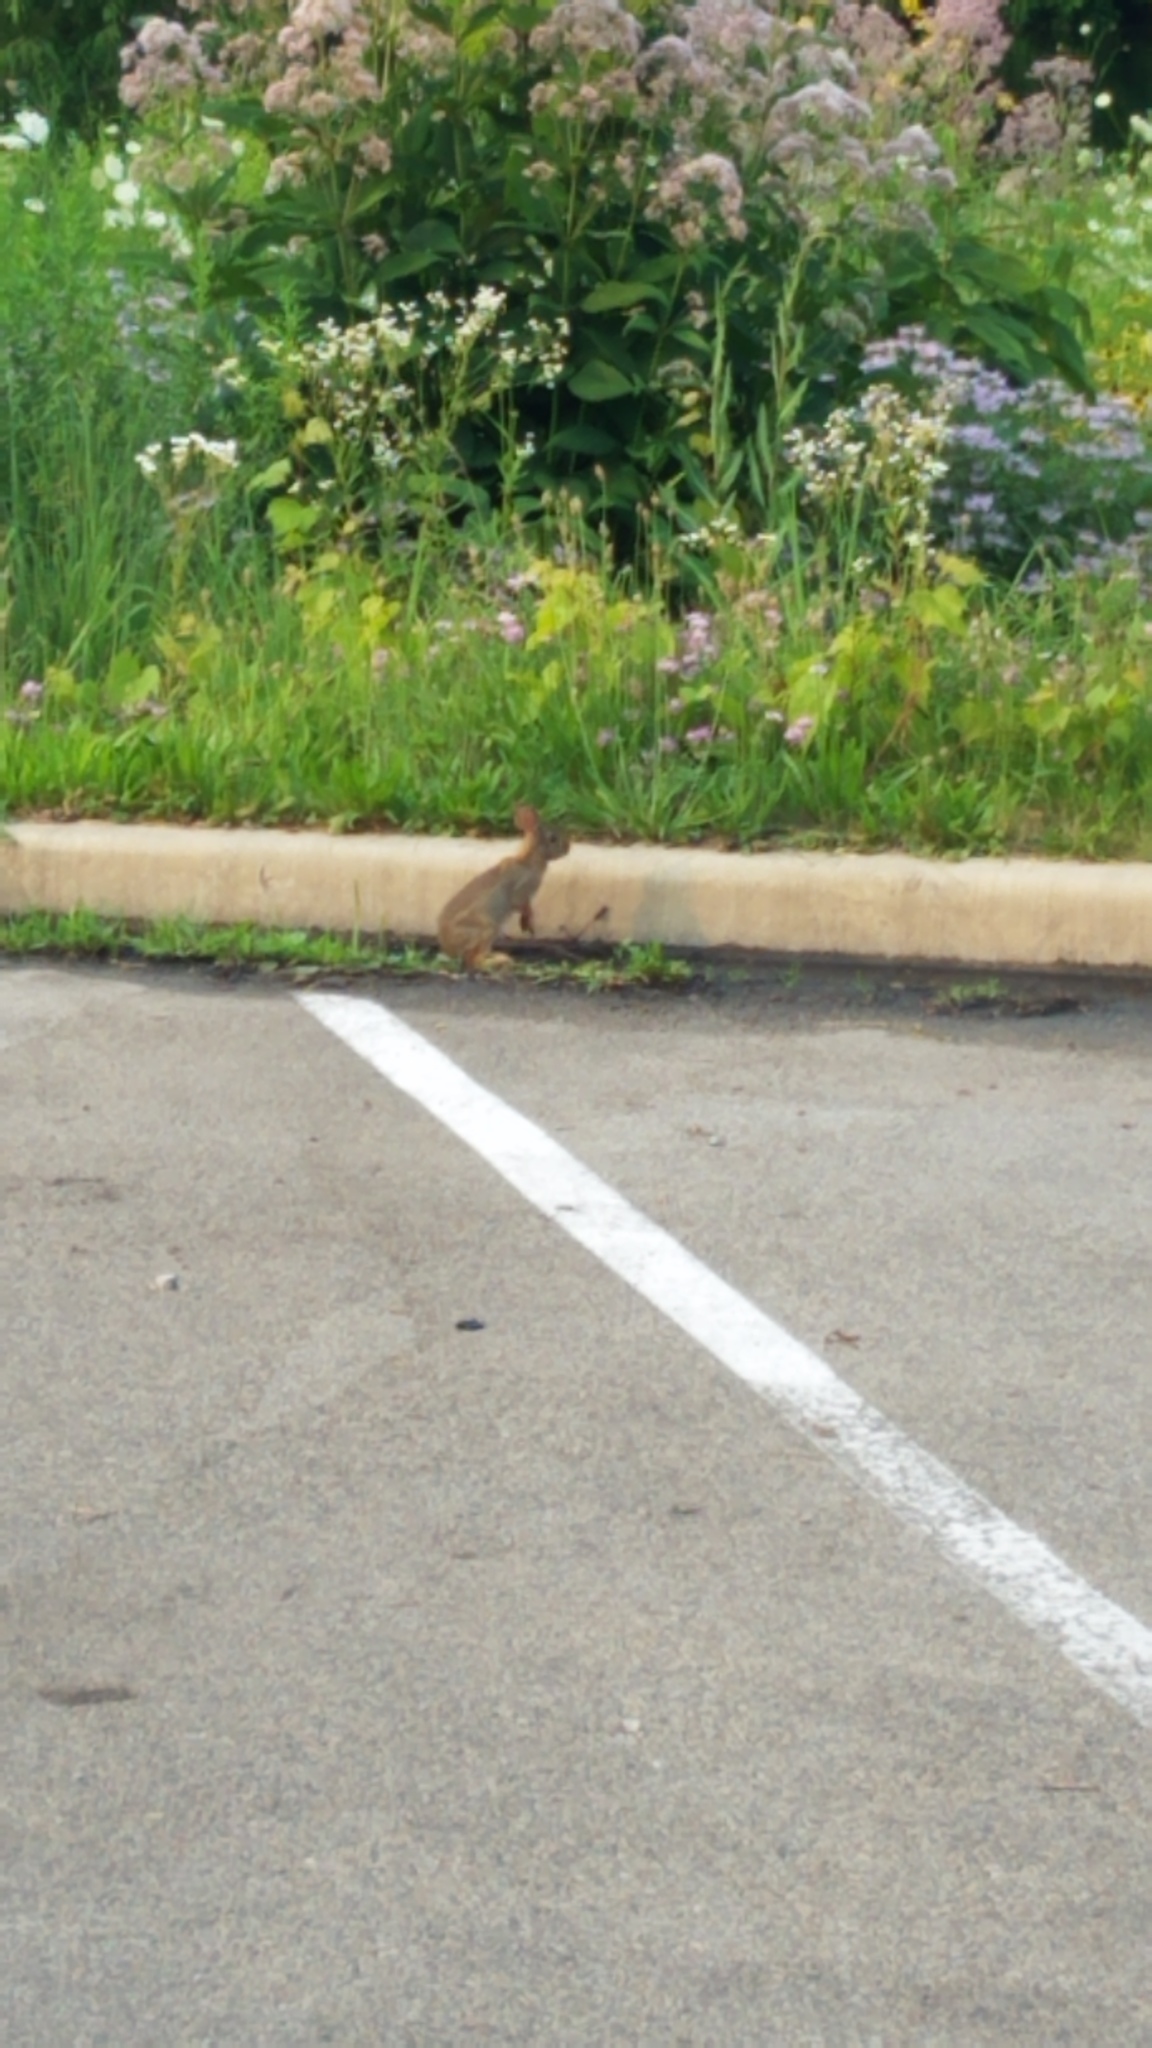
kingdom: Animalia
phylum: Chordata
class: Mammalia
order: Lagomorpha
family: Leporidae
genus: Sylvilagus
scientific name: Sylvilagus floridanus
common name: Eastern cottontail
